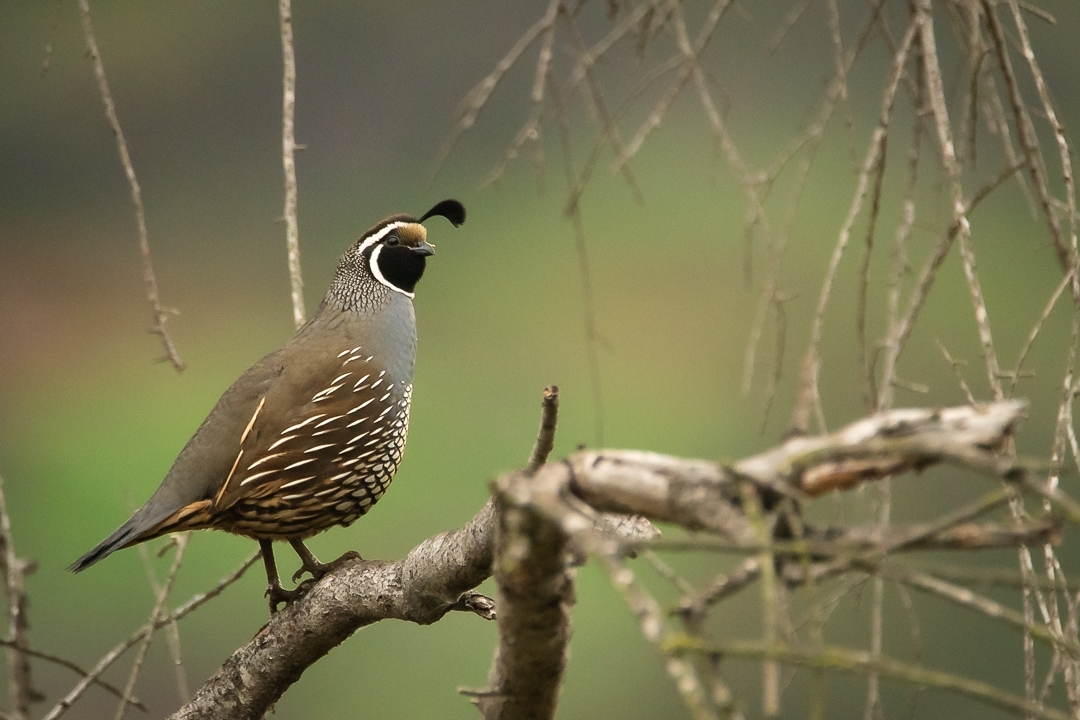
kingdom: Animalia
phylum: Chordata
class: Aves
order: Galliformes
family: Odontophoridae
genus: Callipepla
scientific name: Callipepla californica
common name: California quail
